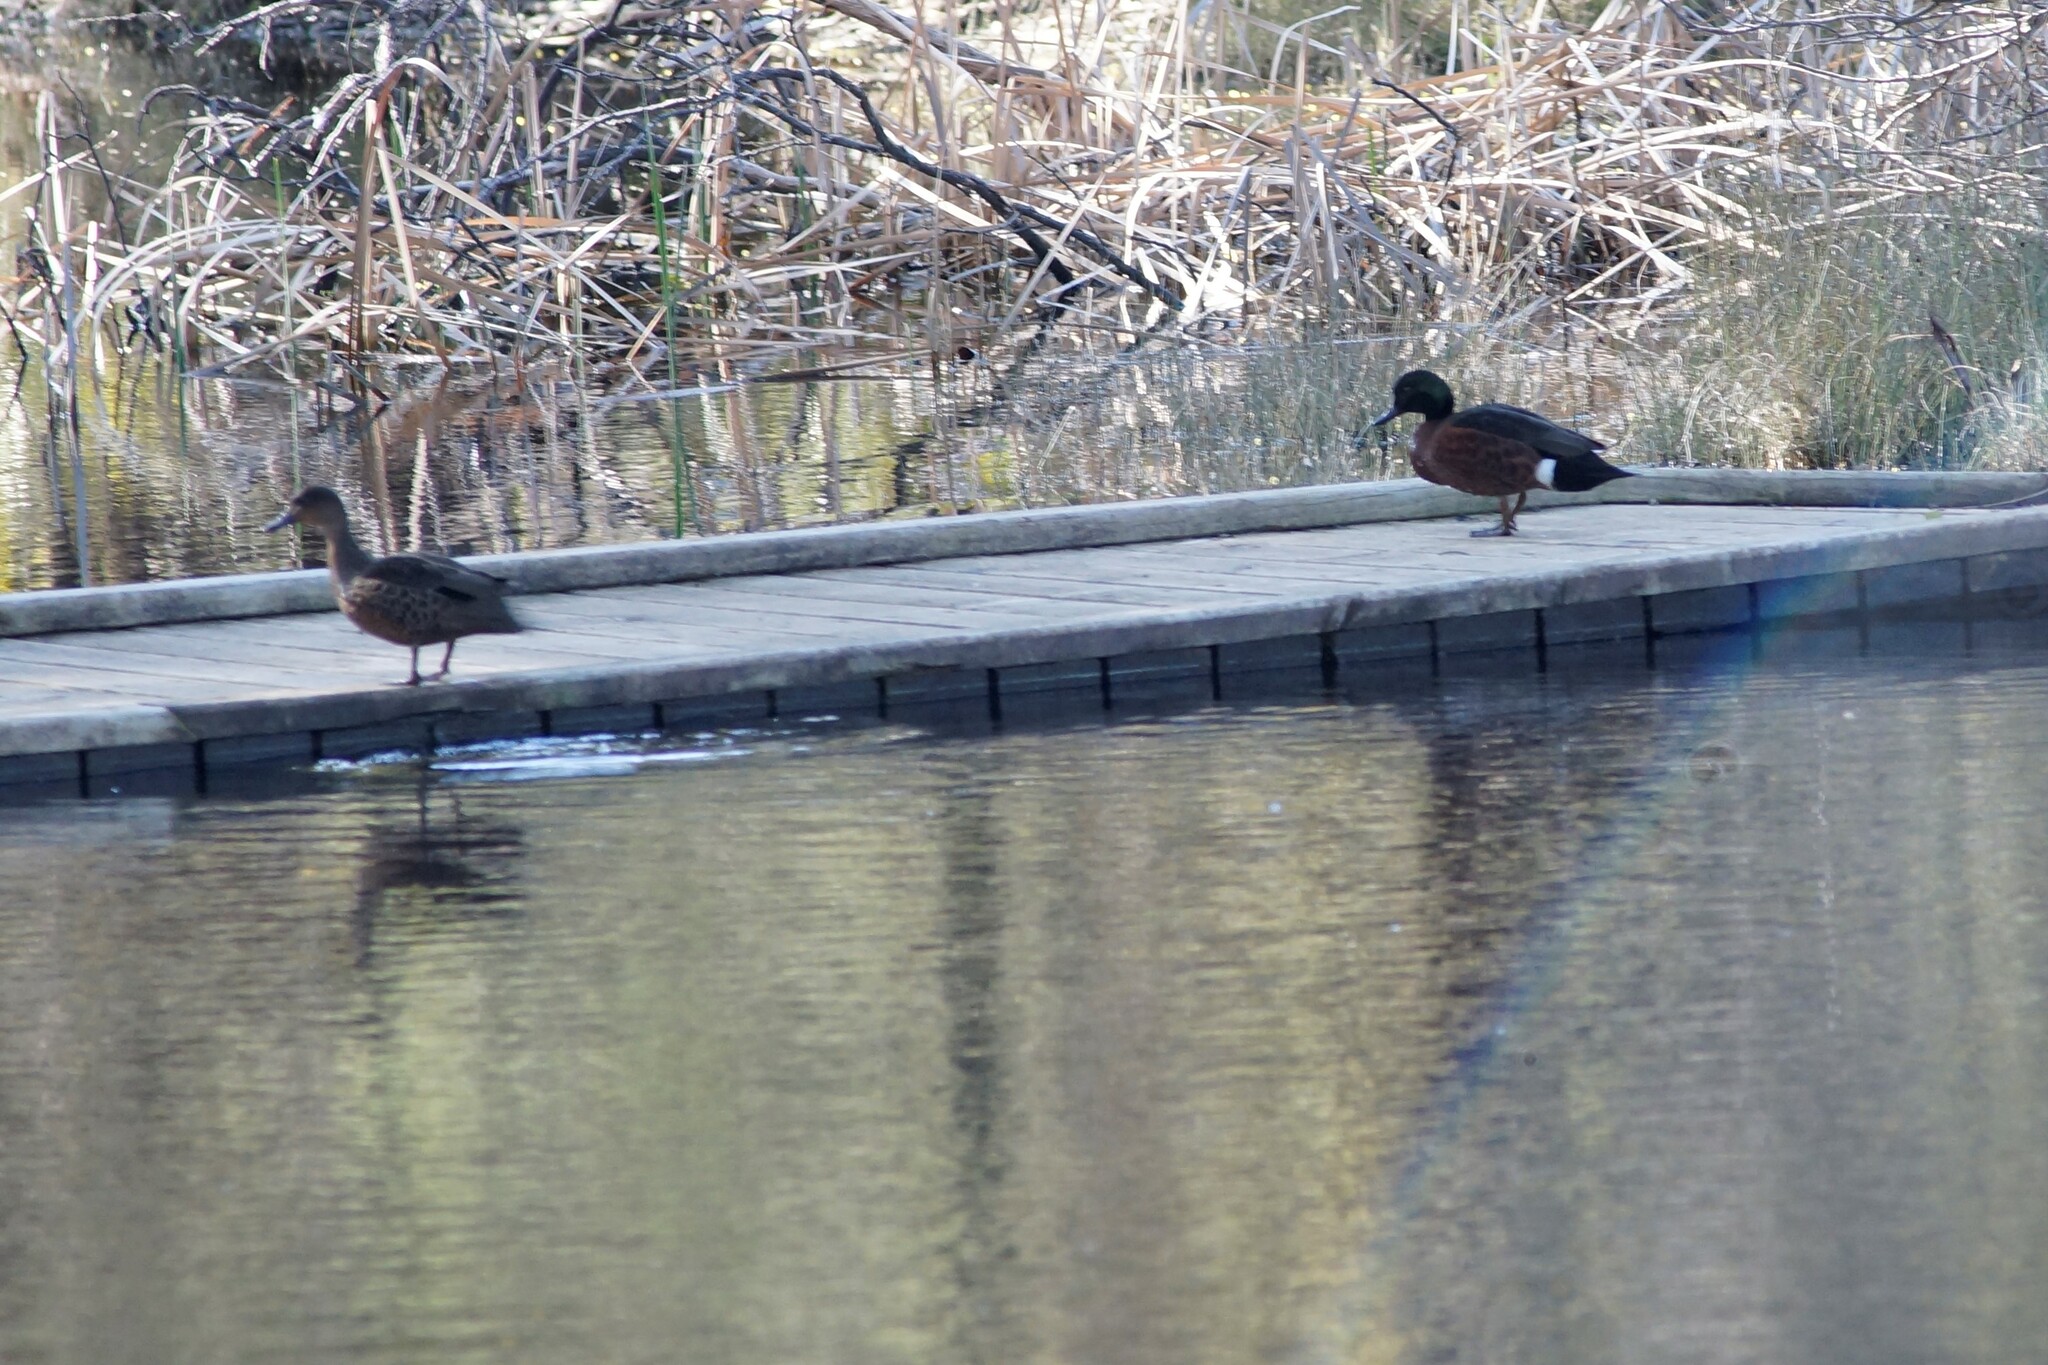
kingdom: Animalia
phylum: Chordata
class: Aves
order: Anseriformes
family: Anatidae
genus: Anas
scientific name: Anas castanea
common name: Chestnut teal
